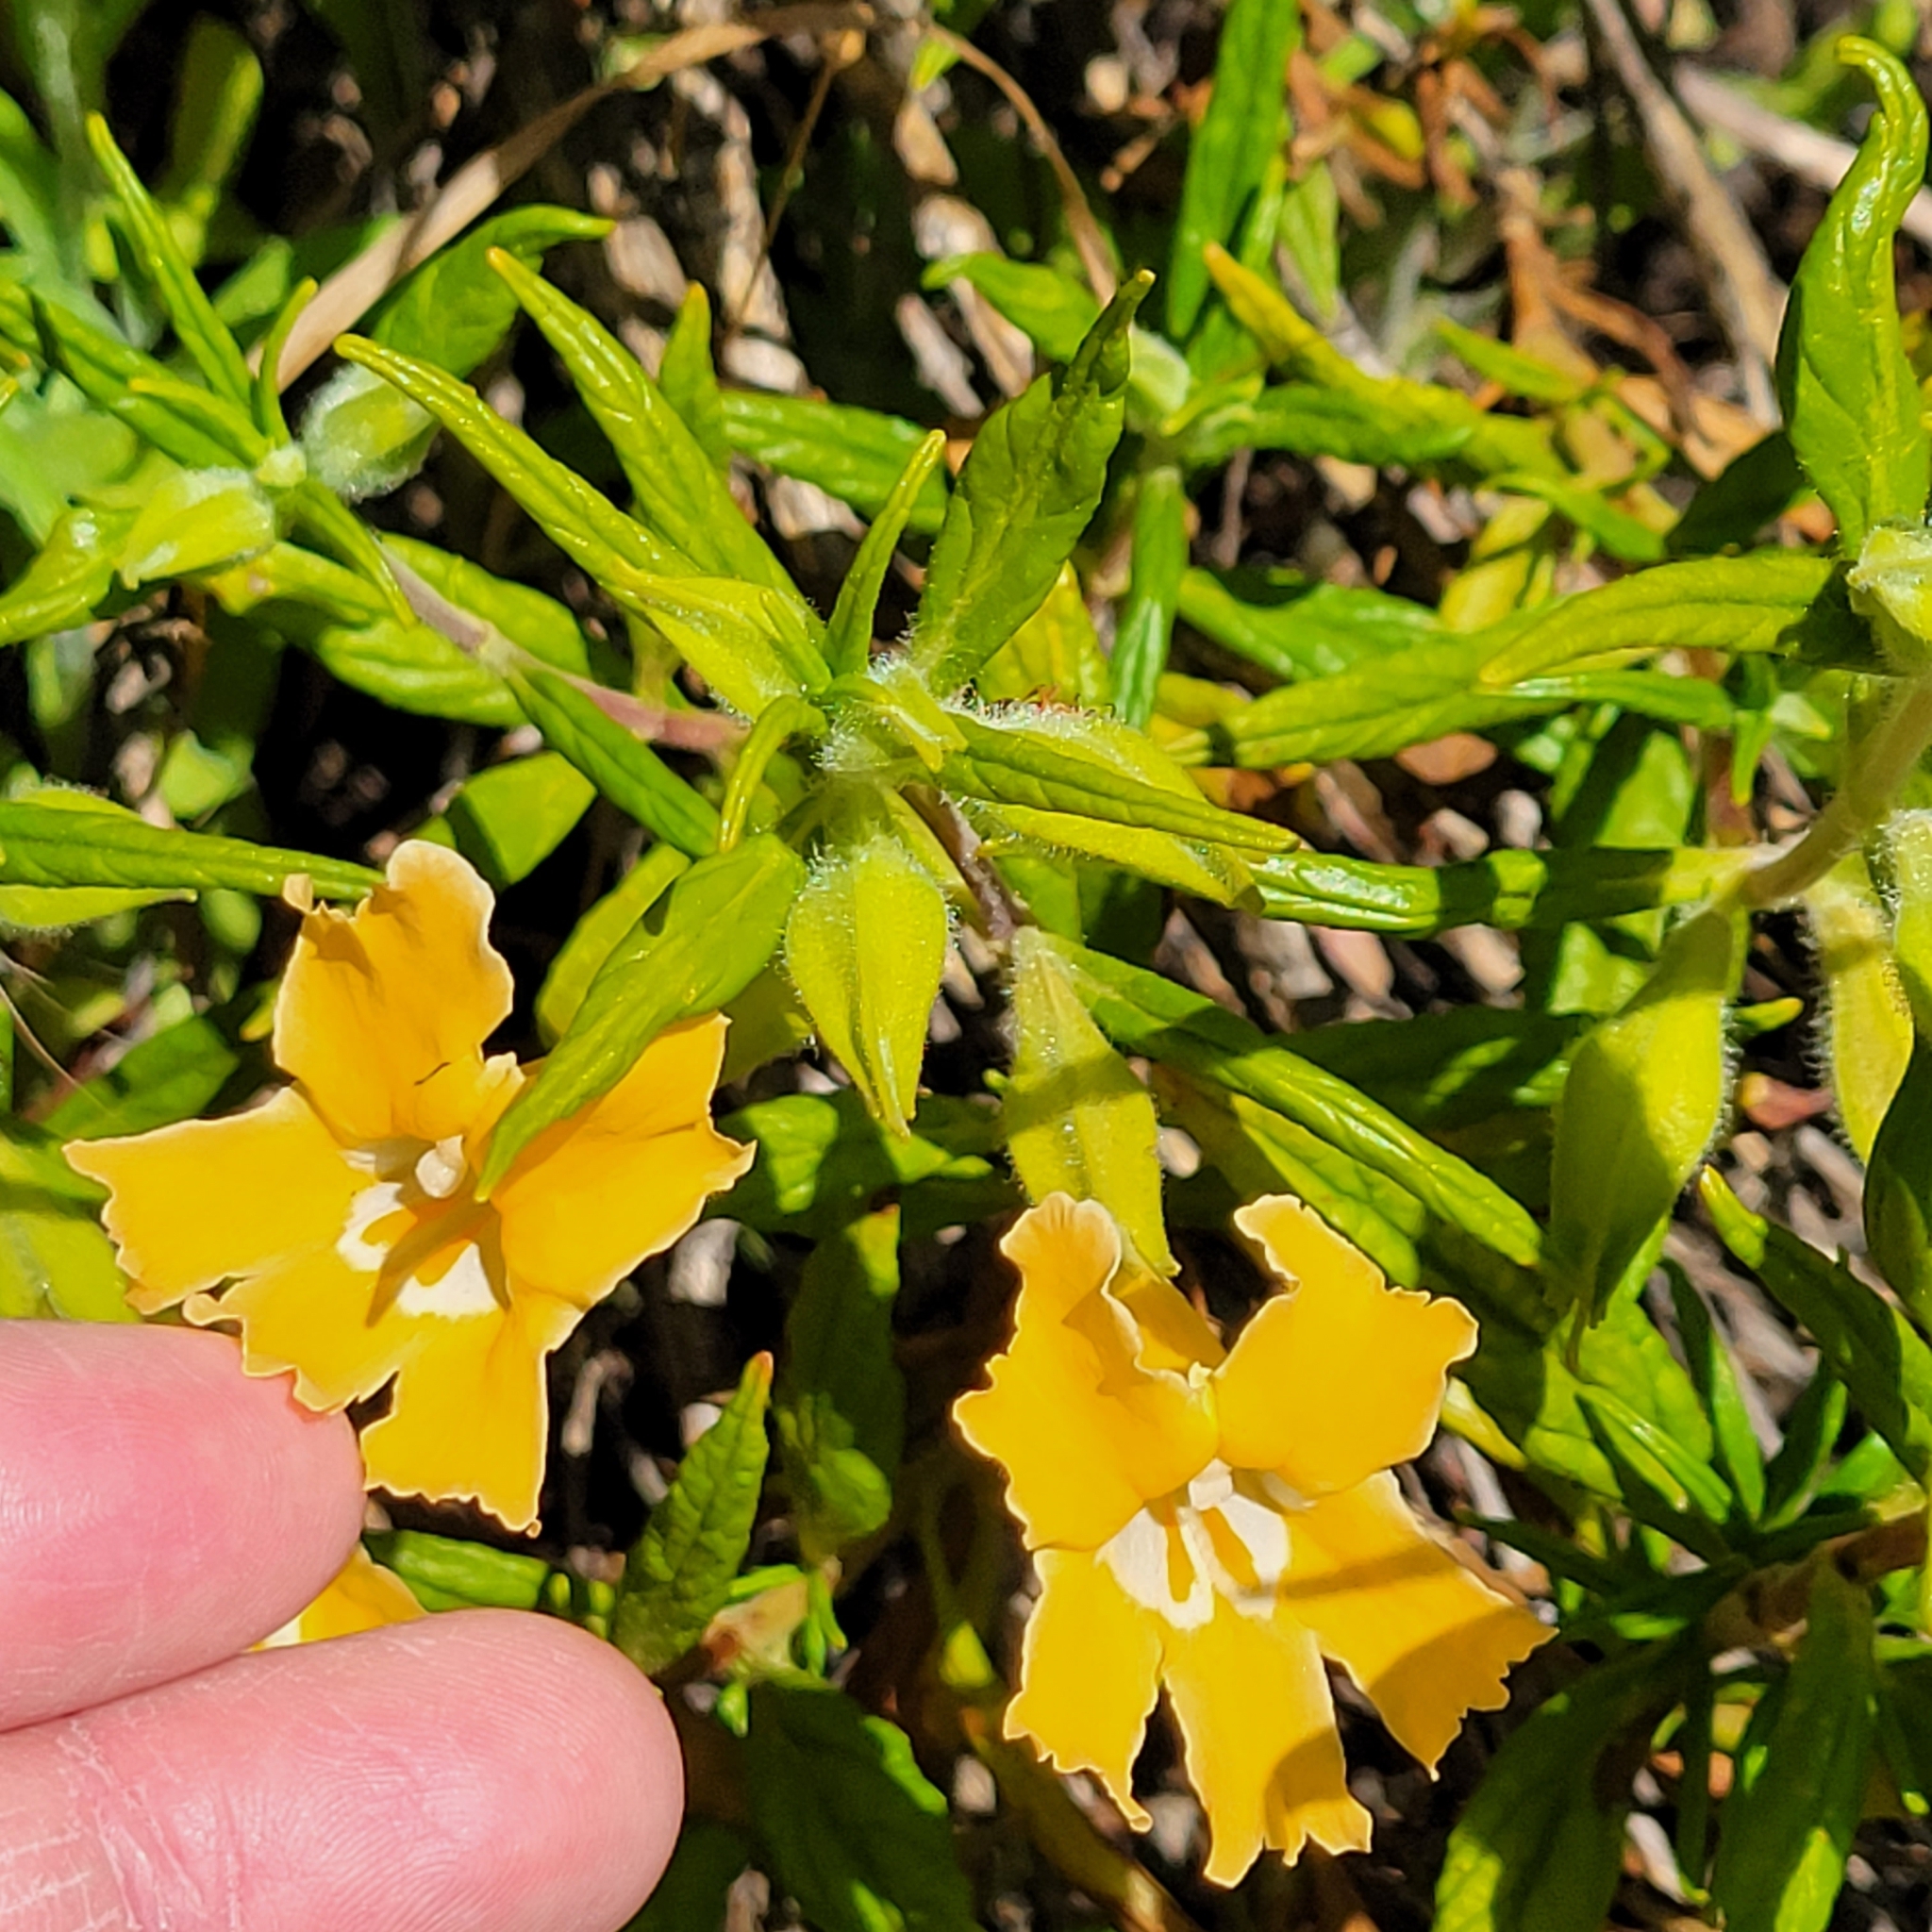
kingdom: Plantae
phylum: Tracheophyta
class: Magnoliopsida
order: Lamiales
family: Phrymaceae
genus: Diplacus
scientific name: Diplacus longiflorus
